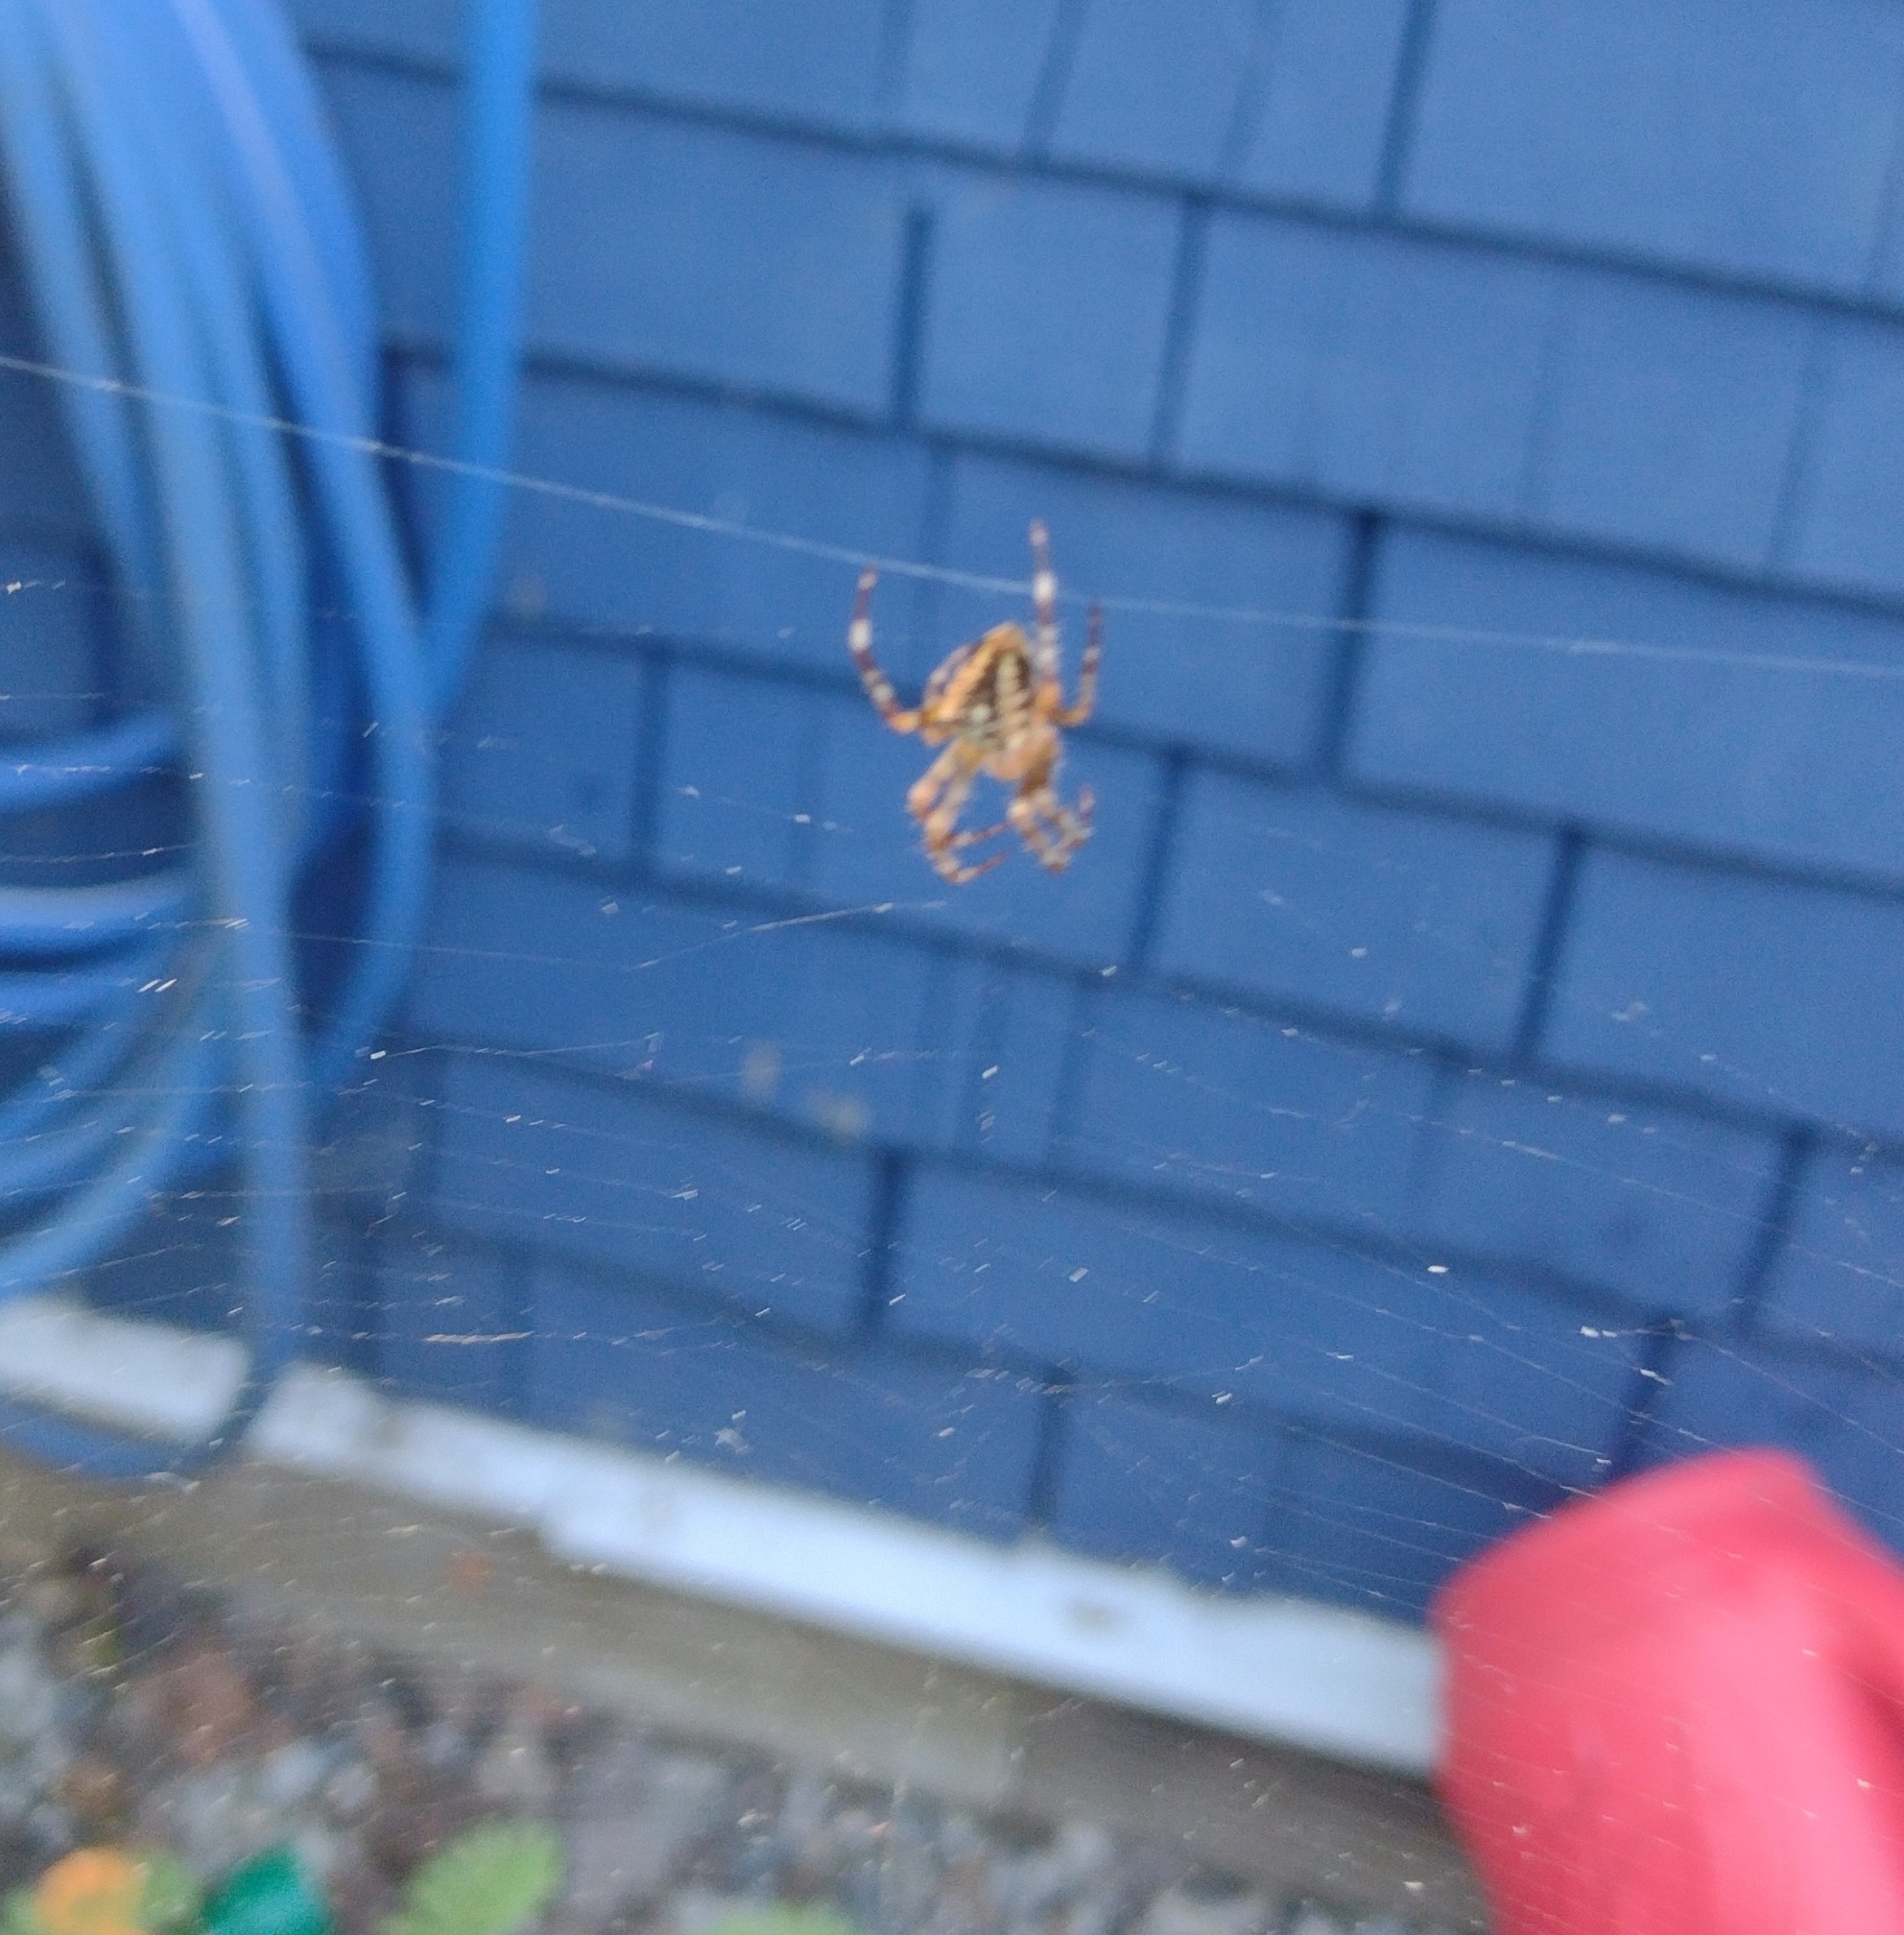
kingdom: Animalia
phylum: Arthropoda
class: Arachnida
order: Araneae
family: Araneidae
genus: Araneus
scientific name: Araneus diadematus
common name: Cross orbweaver
